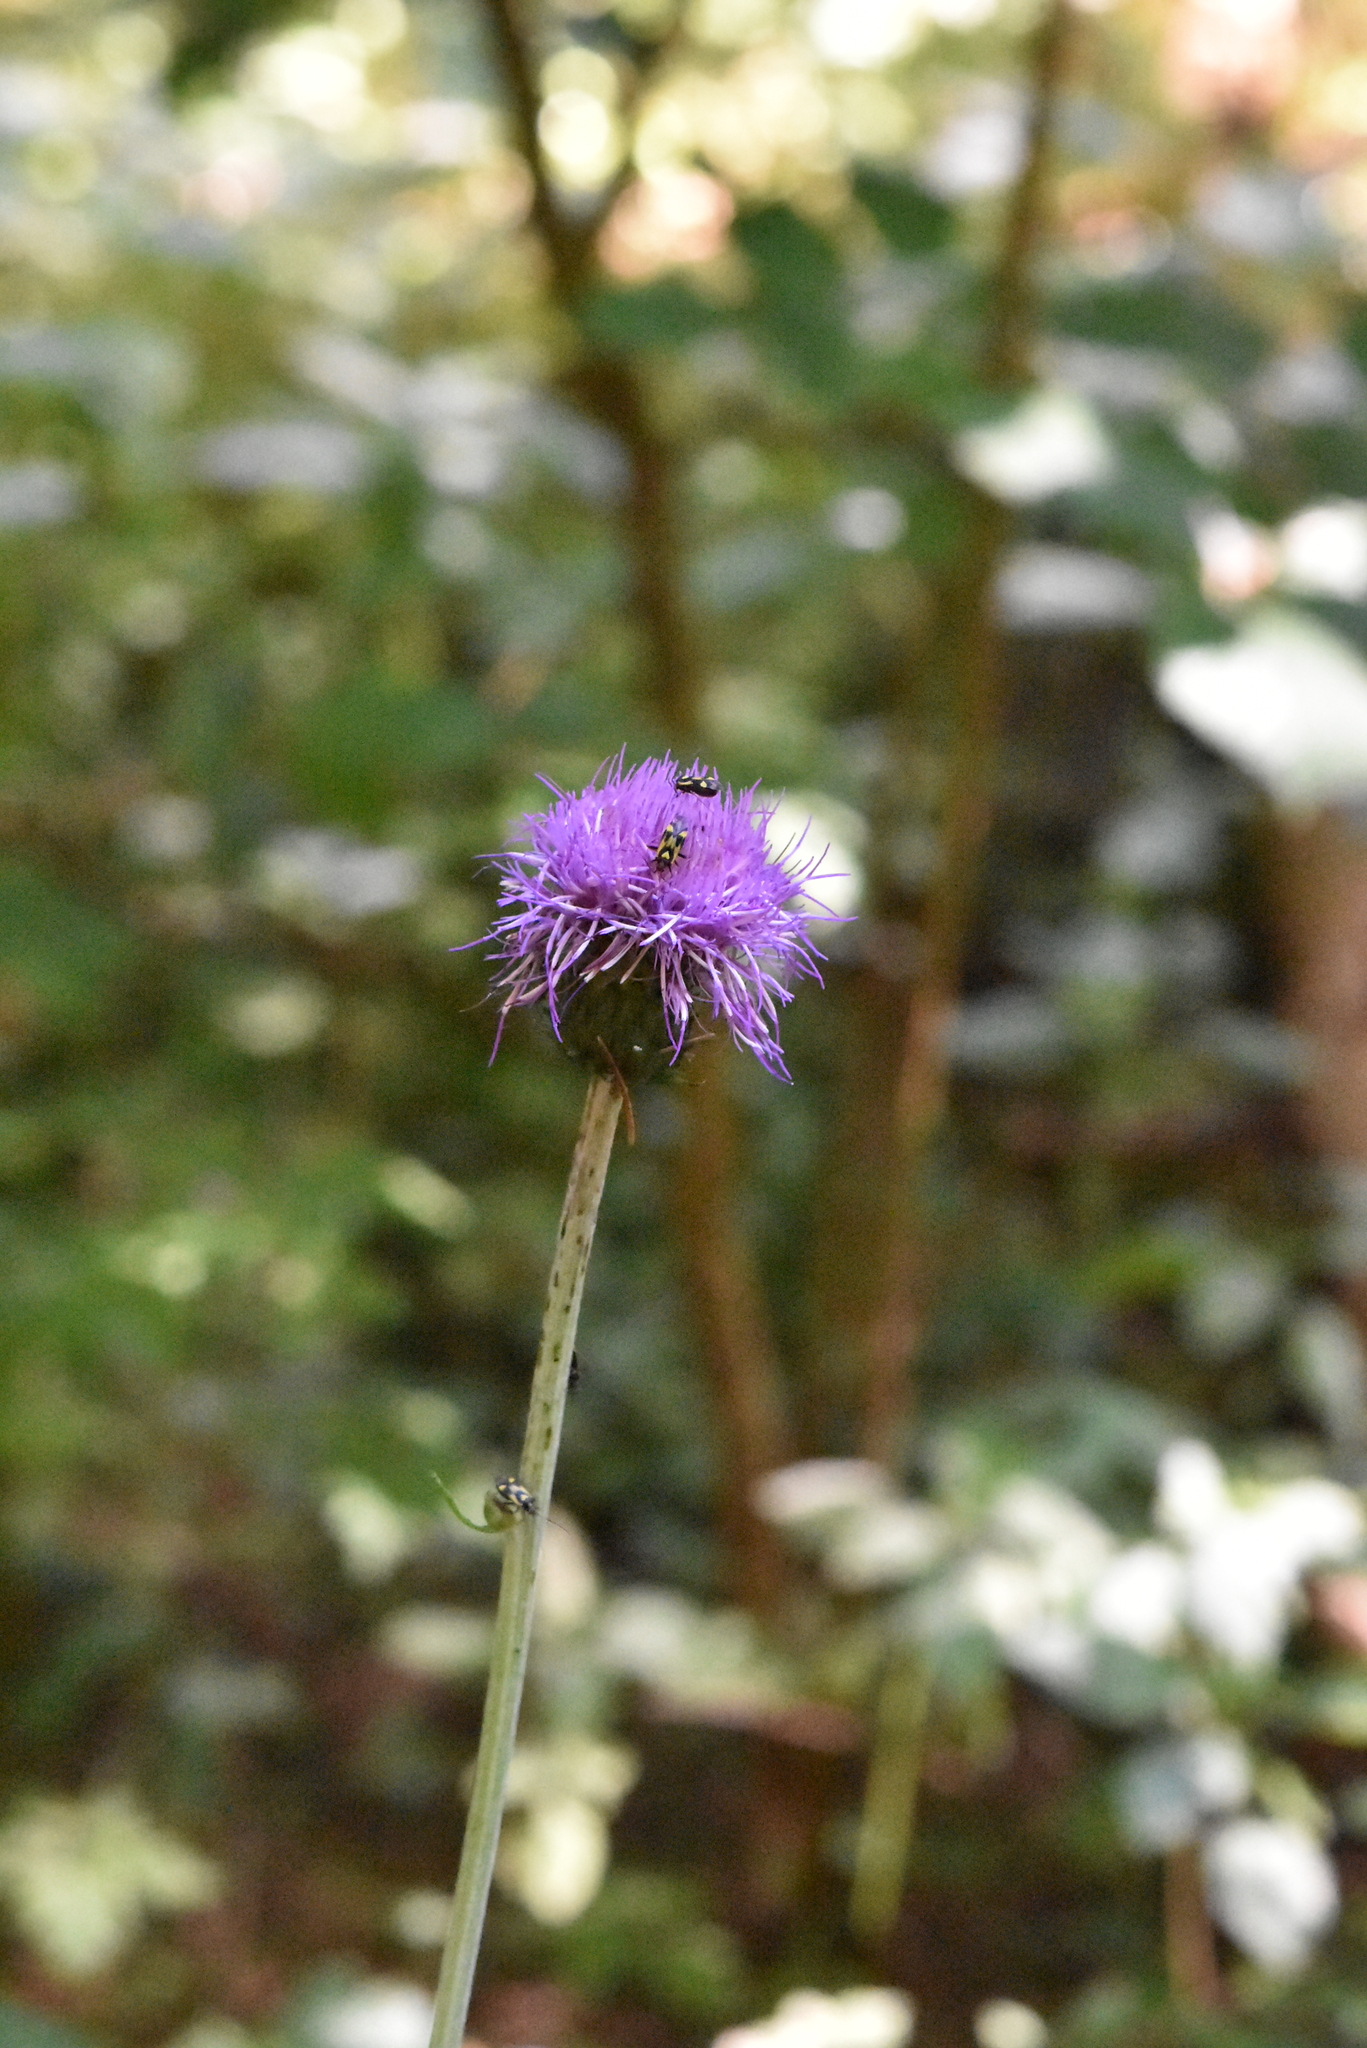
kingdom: Plantae
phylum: Tracheophyta
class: Magnoliopsida
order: Asterales
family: Asteraceae
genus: Cirsium
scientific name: Cirsium heterophyllum
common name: Melancholy thistle
